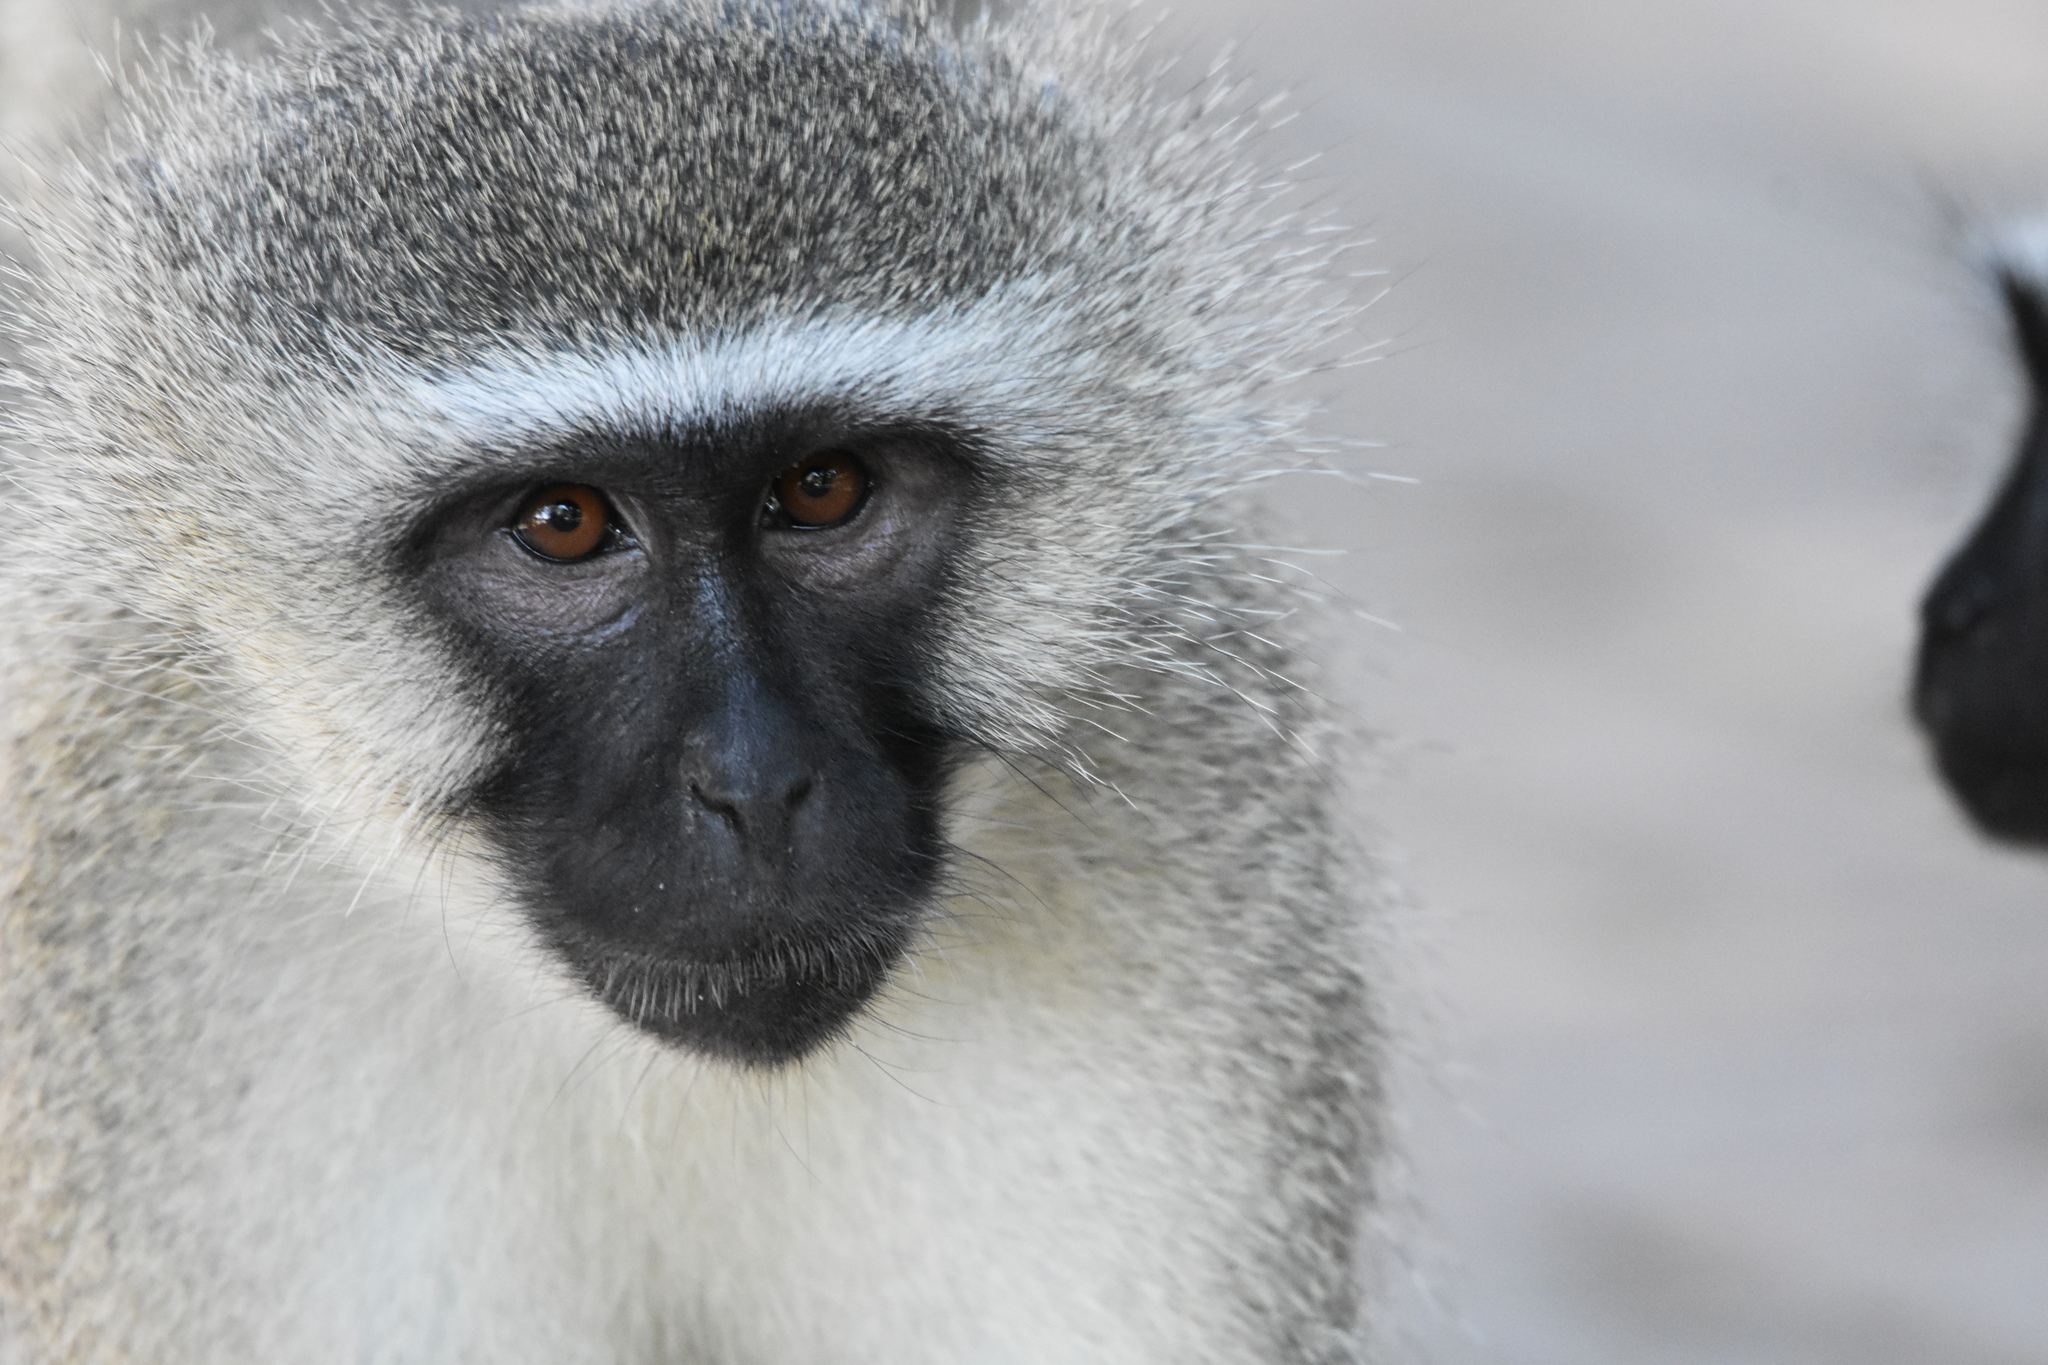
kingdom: Animalia
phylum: Chordata
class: Mammalia
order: Primates
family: Cercopithecidae
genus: Chlorocebus
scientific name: Chlorocebus pygerythrus
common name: Vervet monkey
